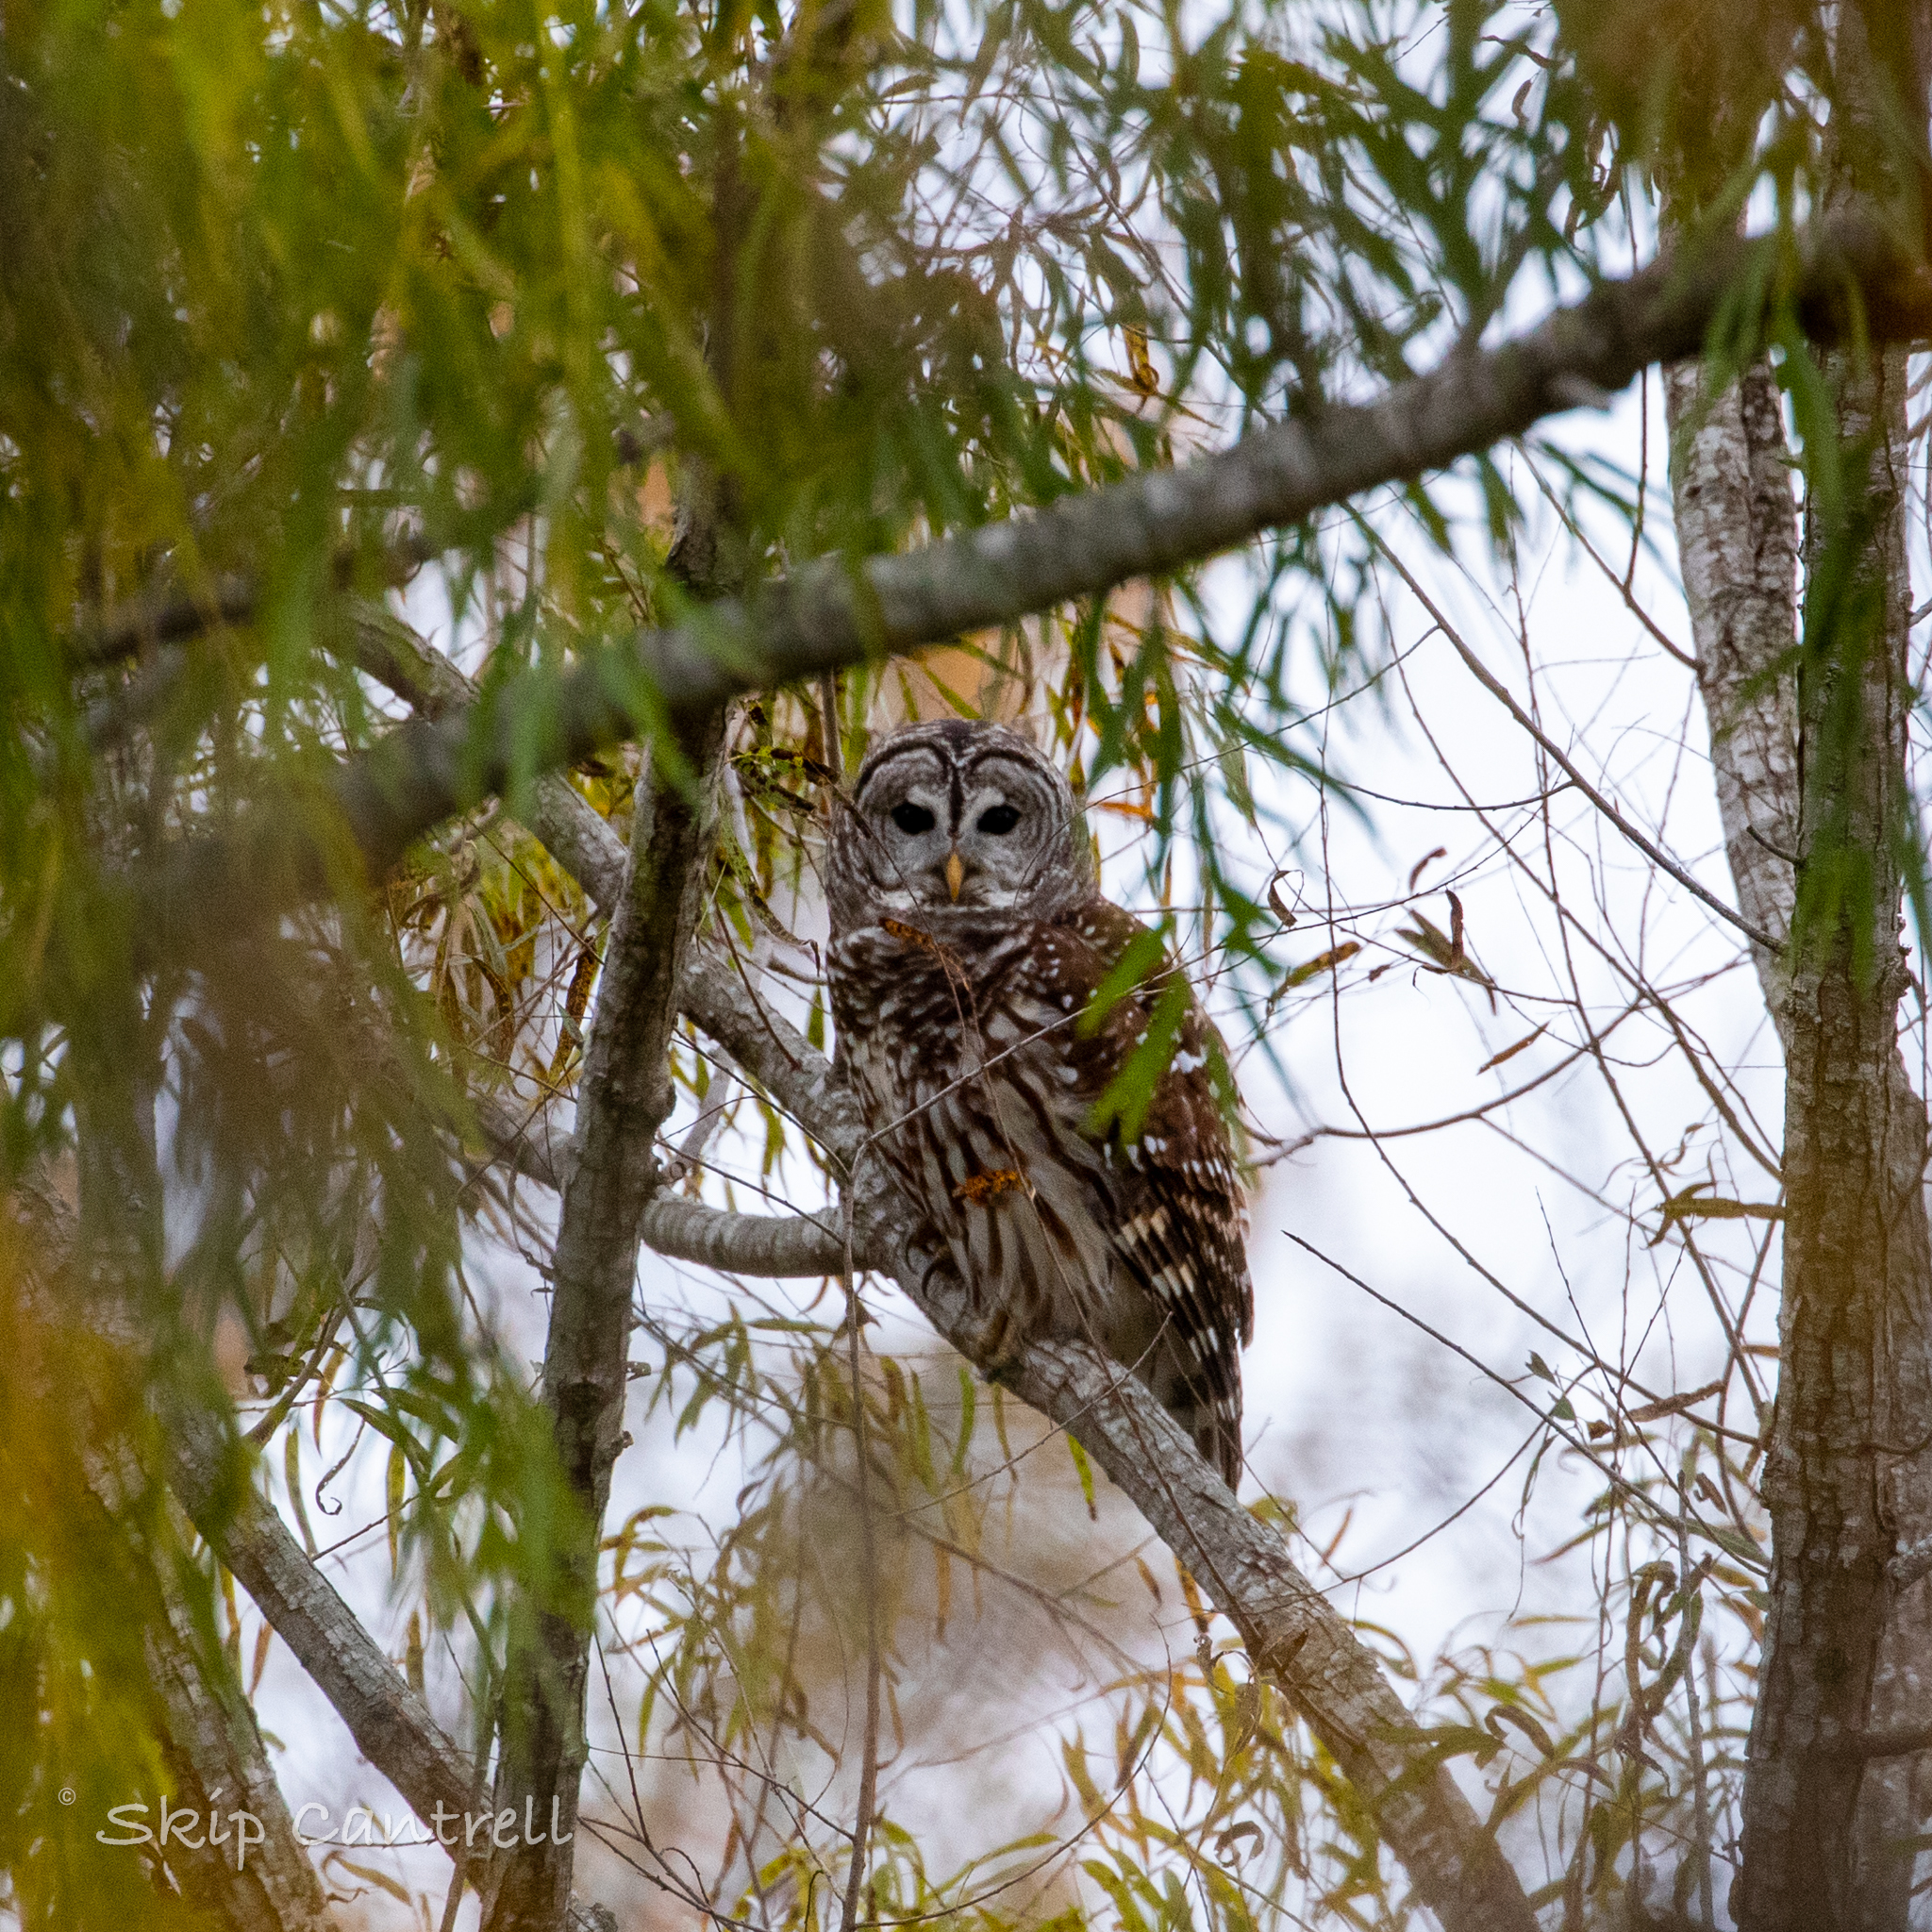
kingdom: Animalia
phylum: Chordata
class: Aves
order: Strigiformes
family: Strigidae
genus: Strix
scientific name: Strix varia
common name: Barred owl
